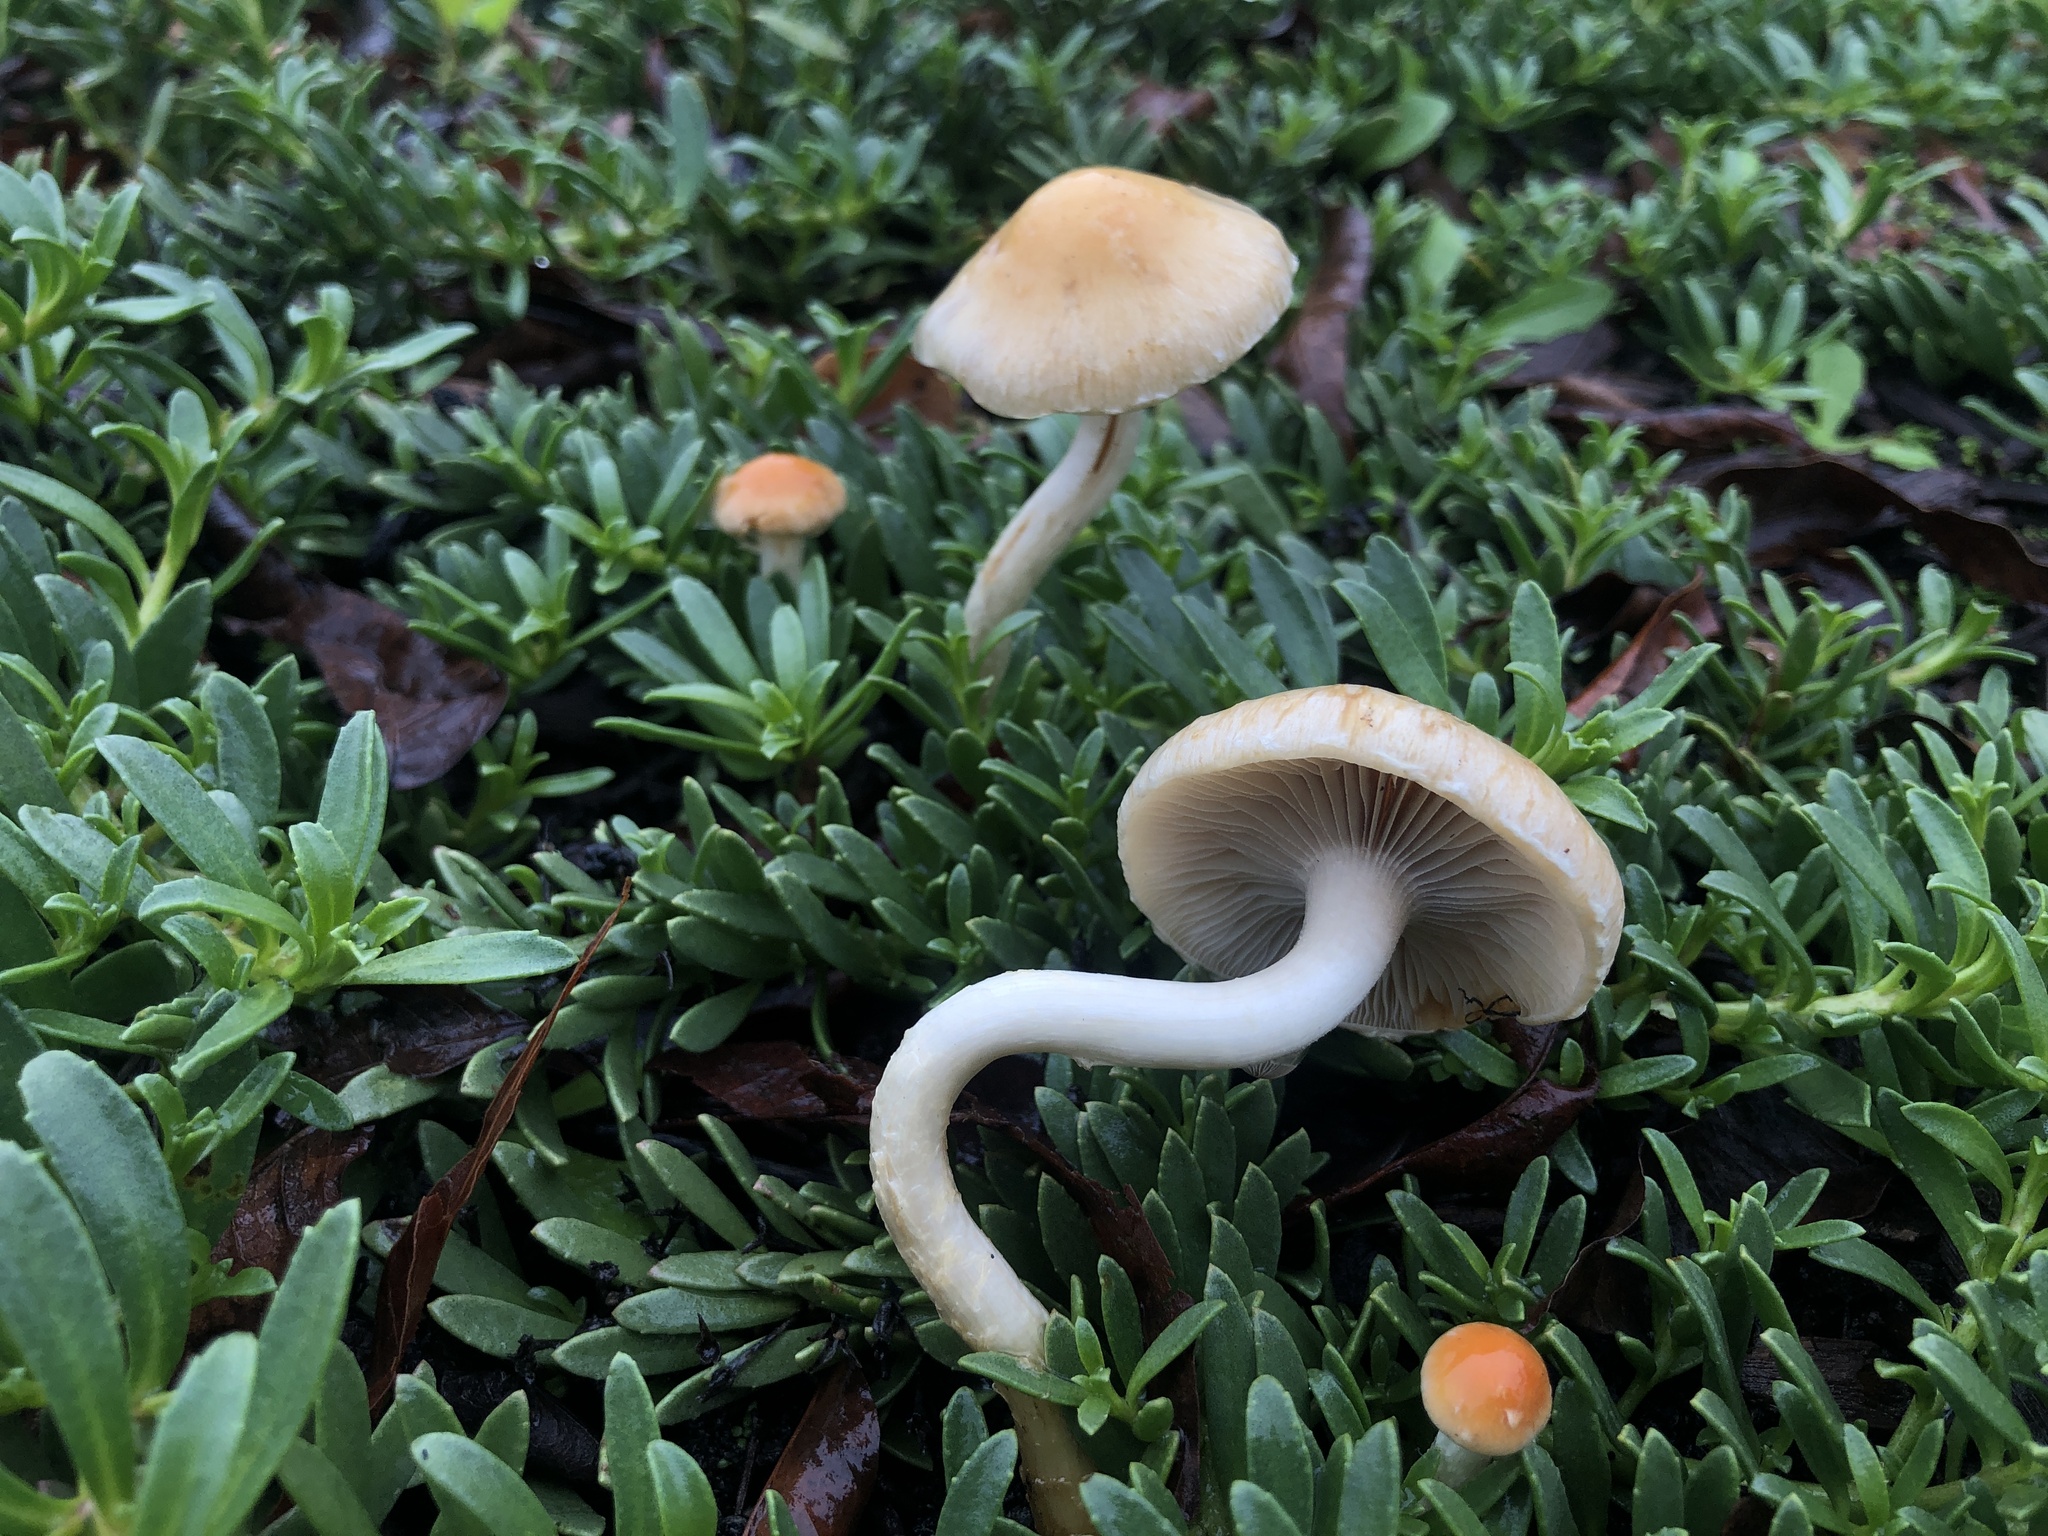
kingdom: Fungi
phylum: Basidiomycota
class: Agaricomycetes
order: Agaricales
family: Strophariaceae
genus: Leratiomyces
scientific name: Leratiomyces percevalii
